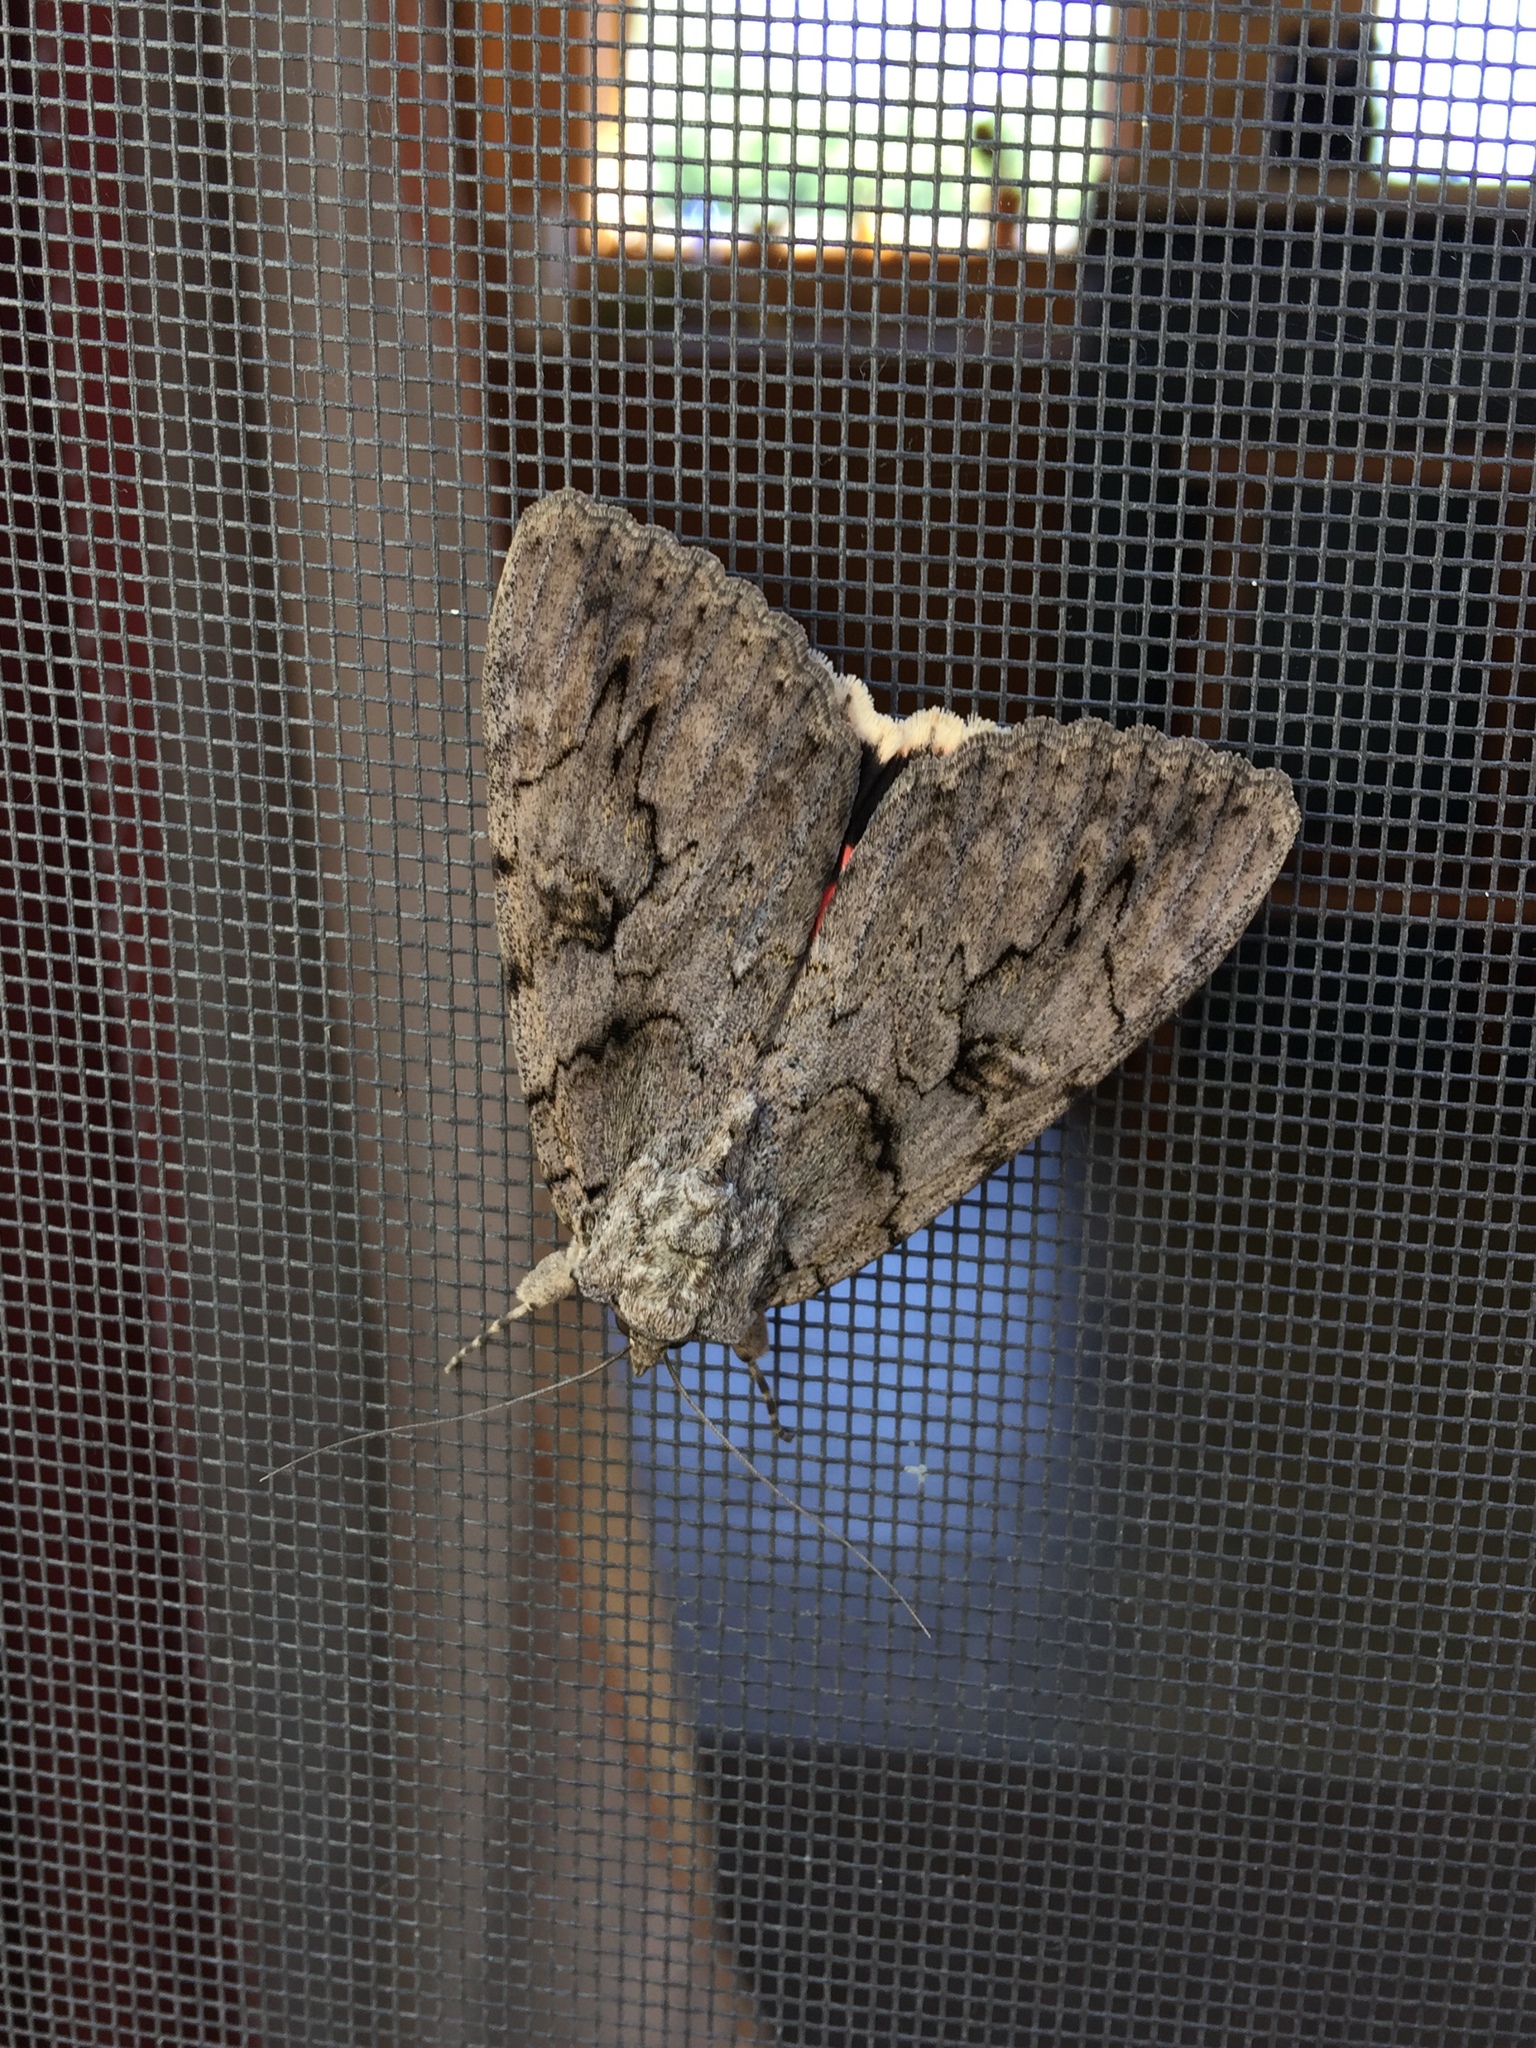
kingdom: Animalia
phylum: Arthropoda
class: Insecta
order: Lepidoptera
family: Erebidae
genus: Catocala
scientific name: Catocala amatrix
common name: Sweetheart underwing
